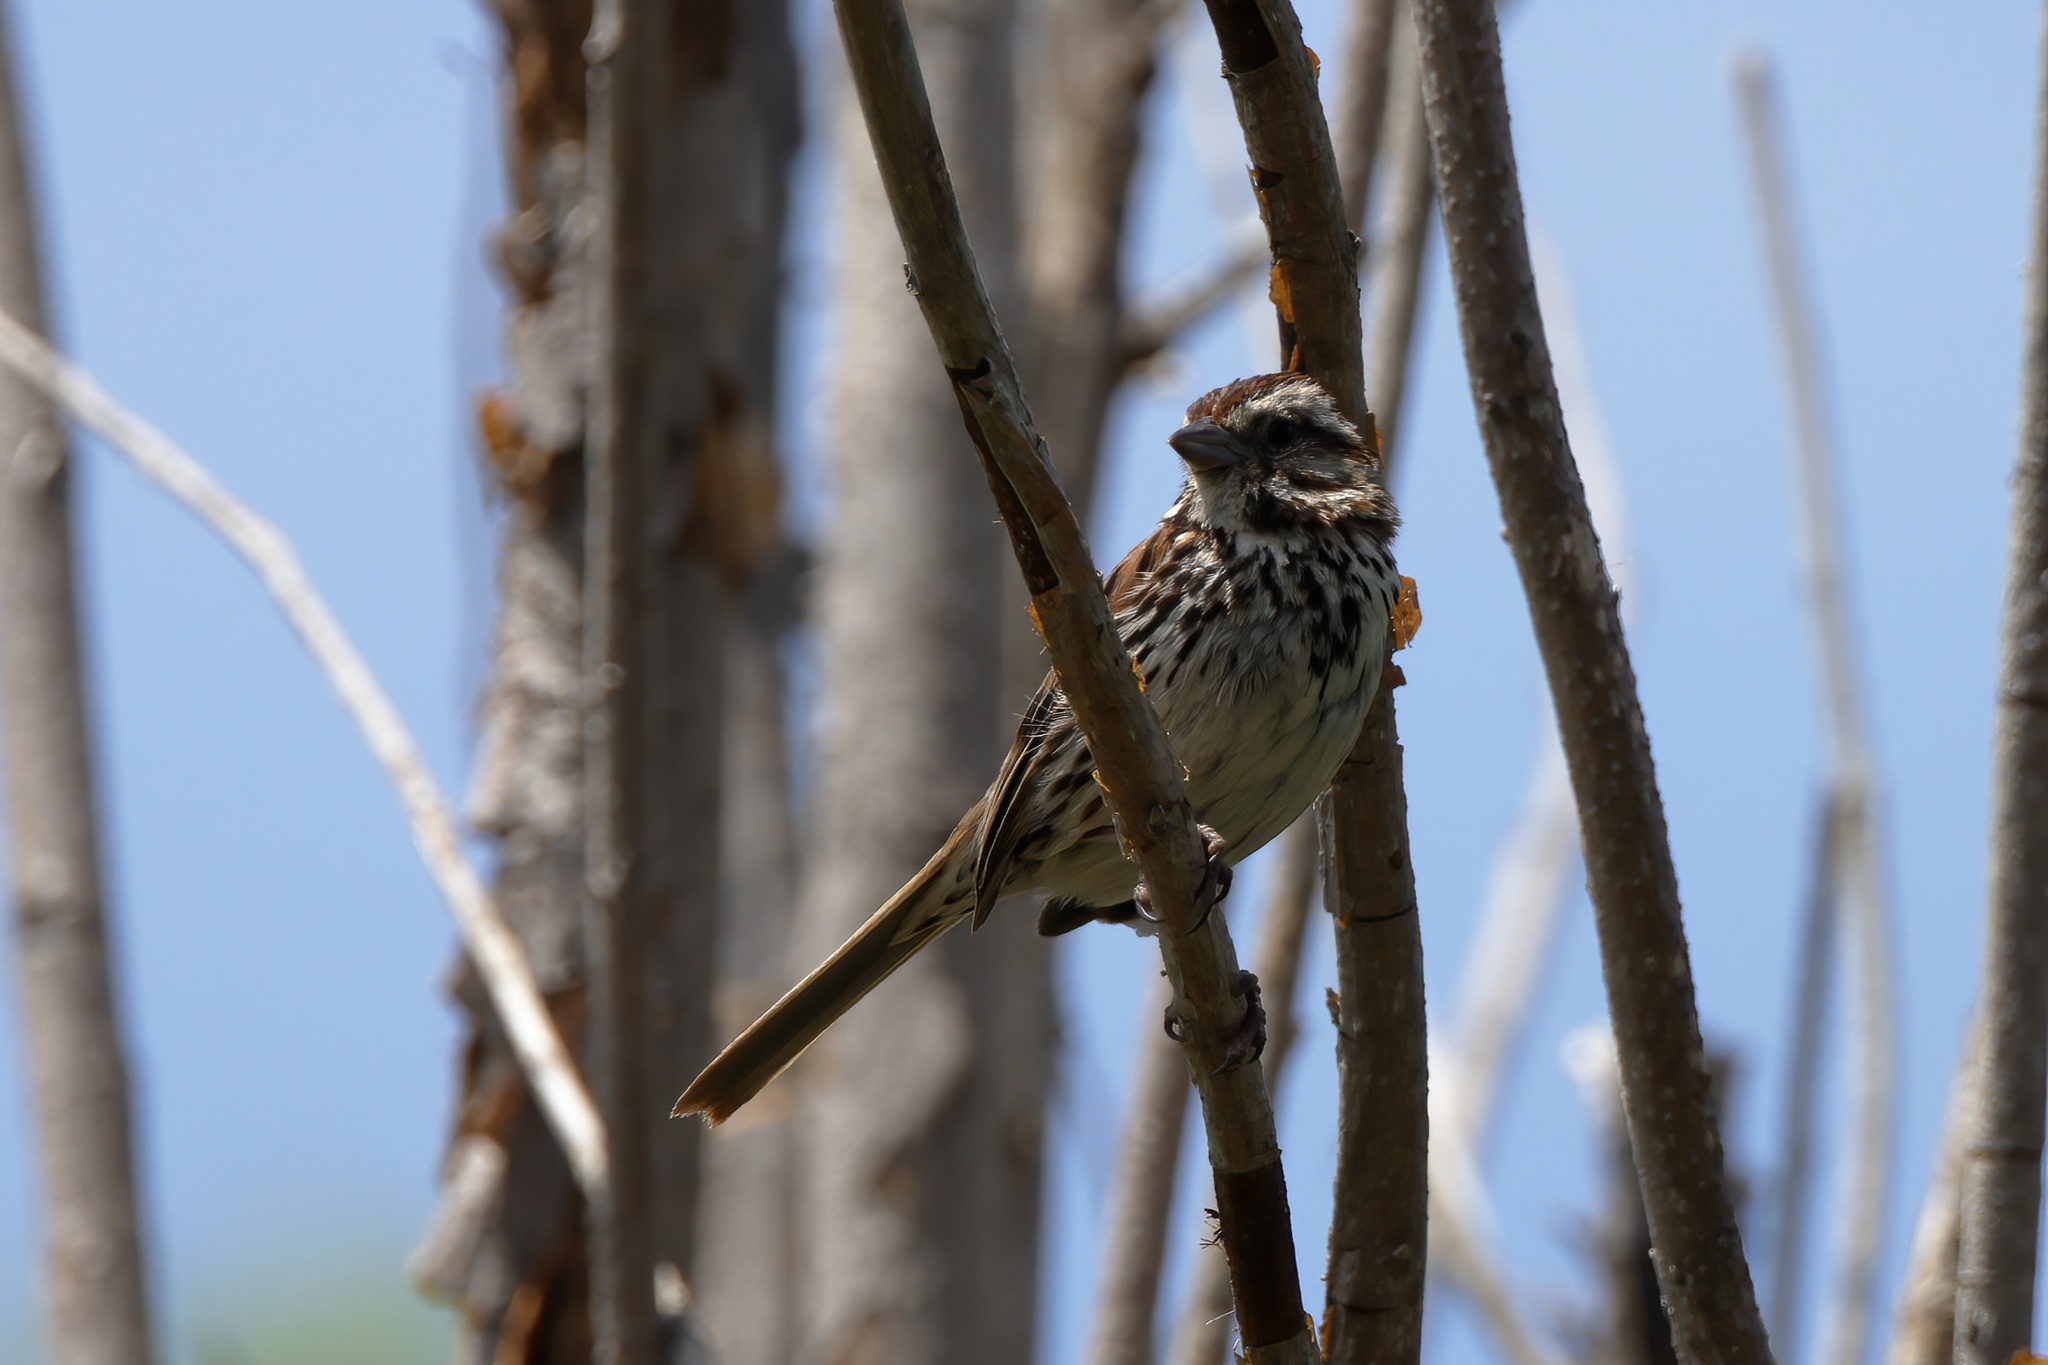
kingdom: Animalia
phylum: Chordata
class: Aves
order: Passeriformes
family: Passerellidae
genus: Melospiza
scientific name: Melospiza melodia
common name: Song sparrow
